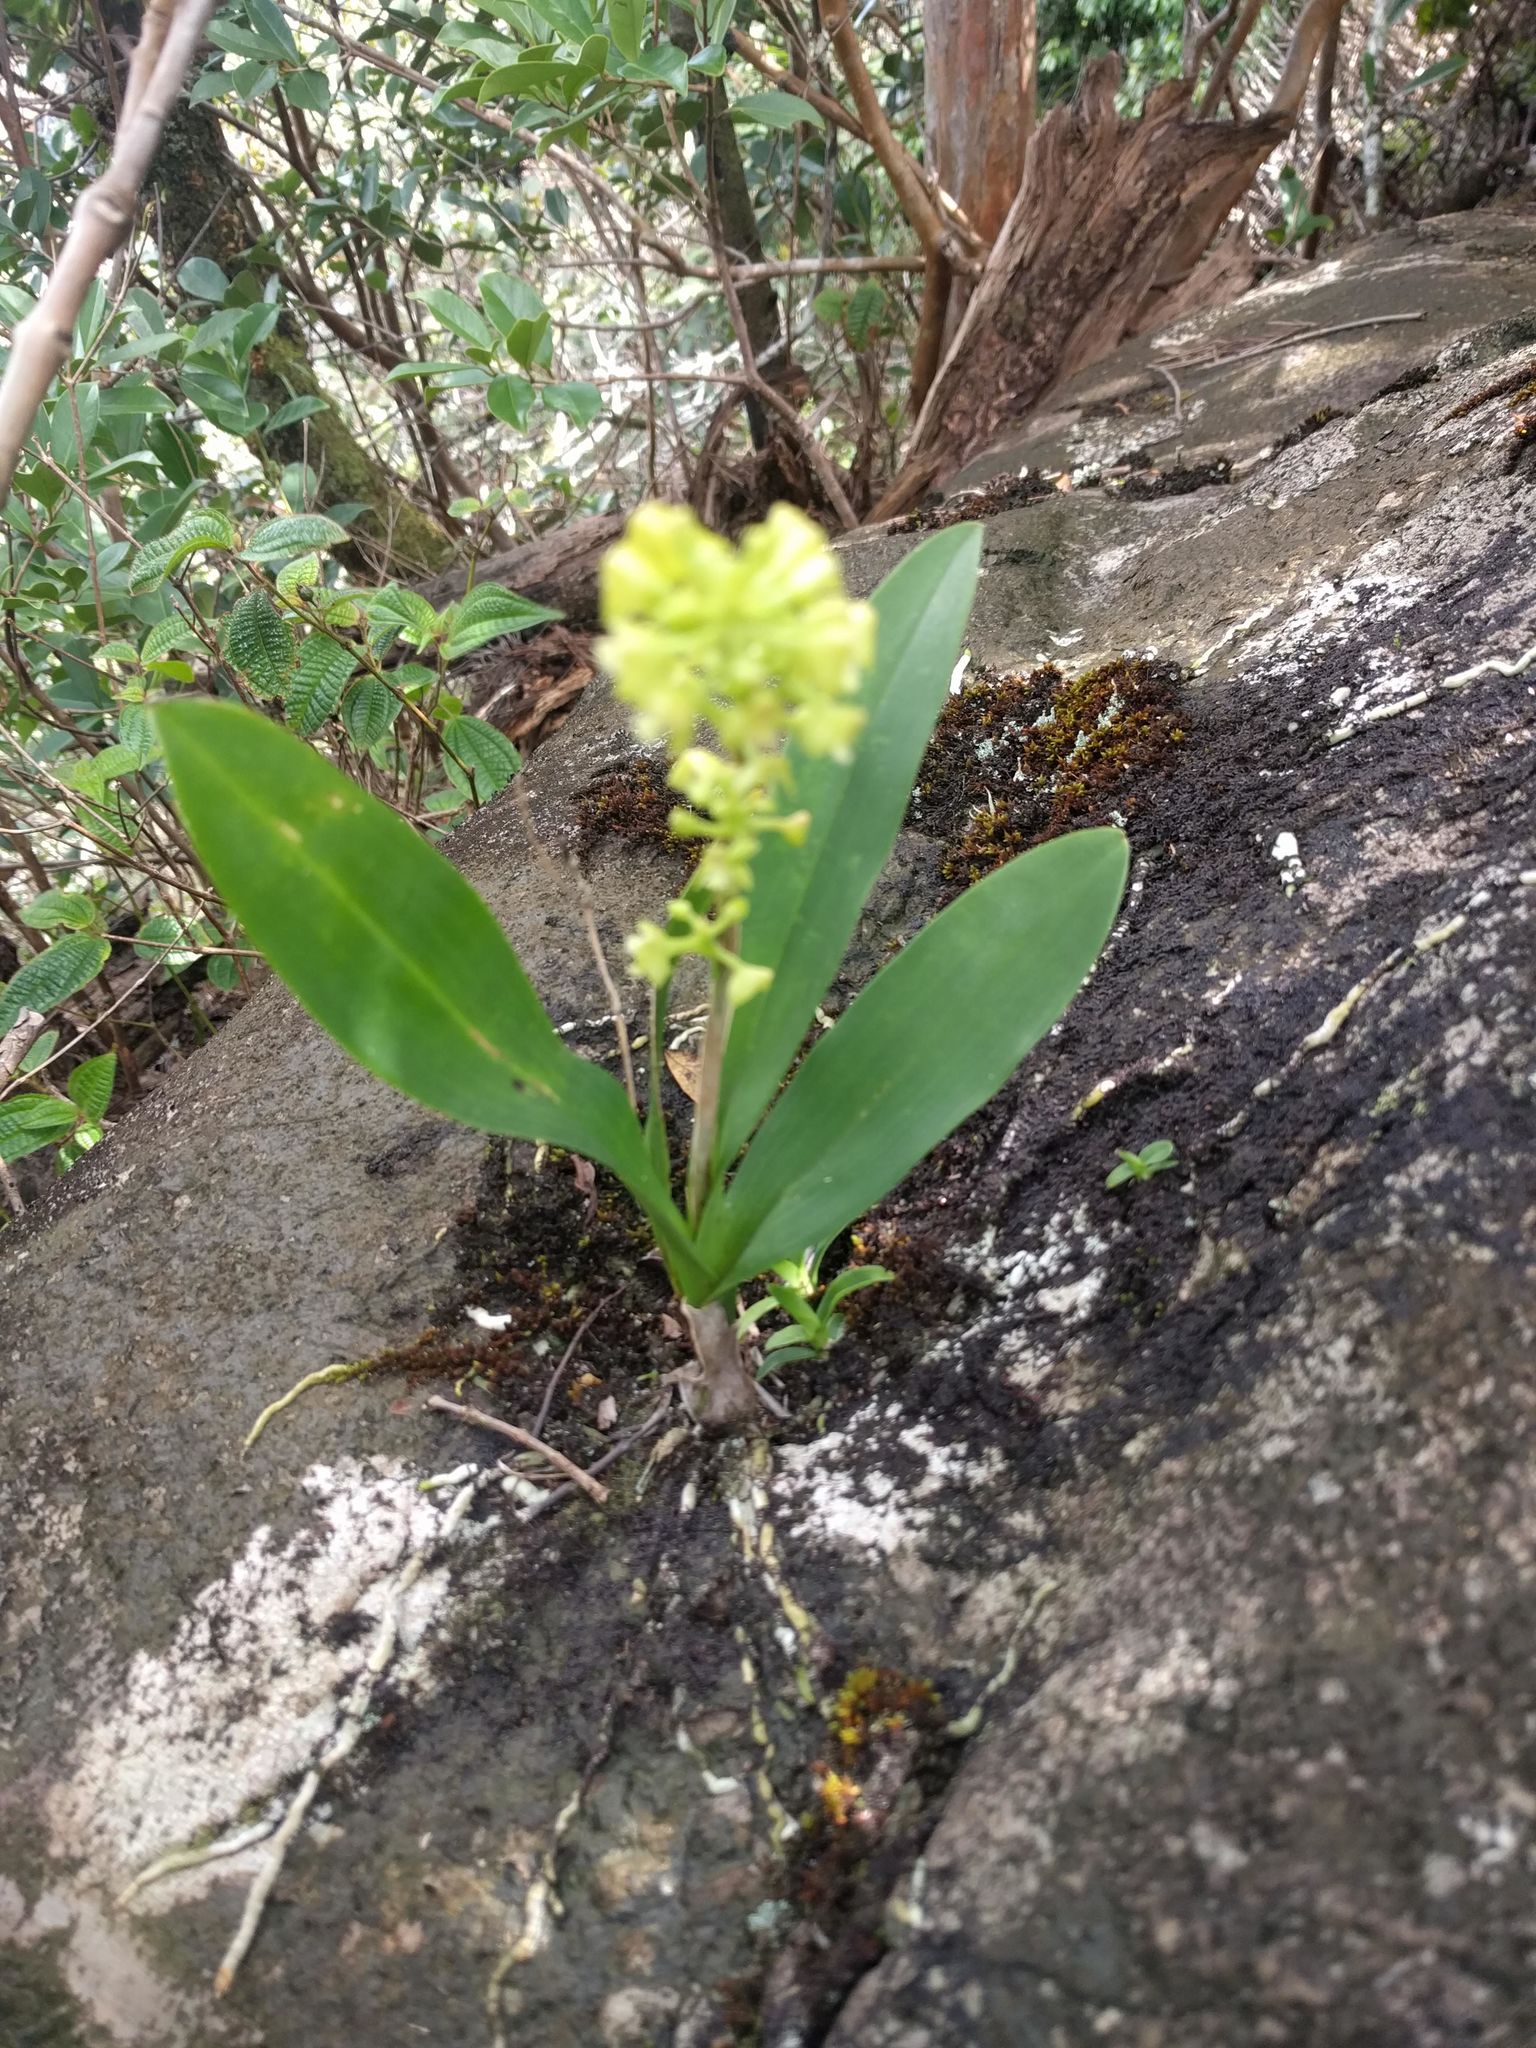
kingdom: Plantae
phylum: Tracheophyta
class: Liliopsida
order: Asparagales
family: Orchidaceae
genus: Polystachya
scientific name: Polystachya concreta
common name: Greater yellowspike orchid
